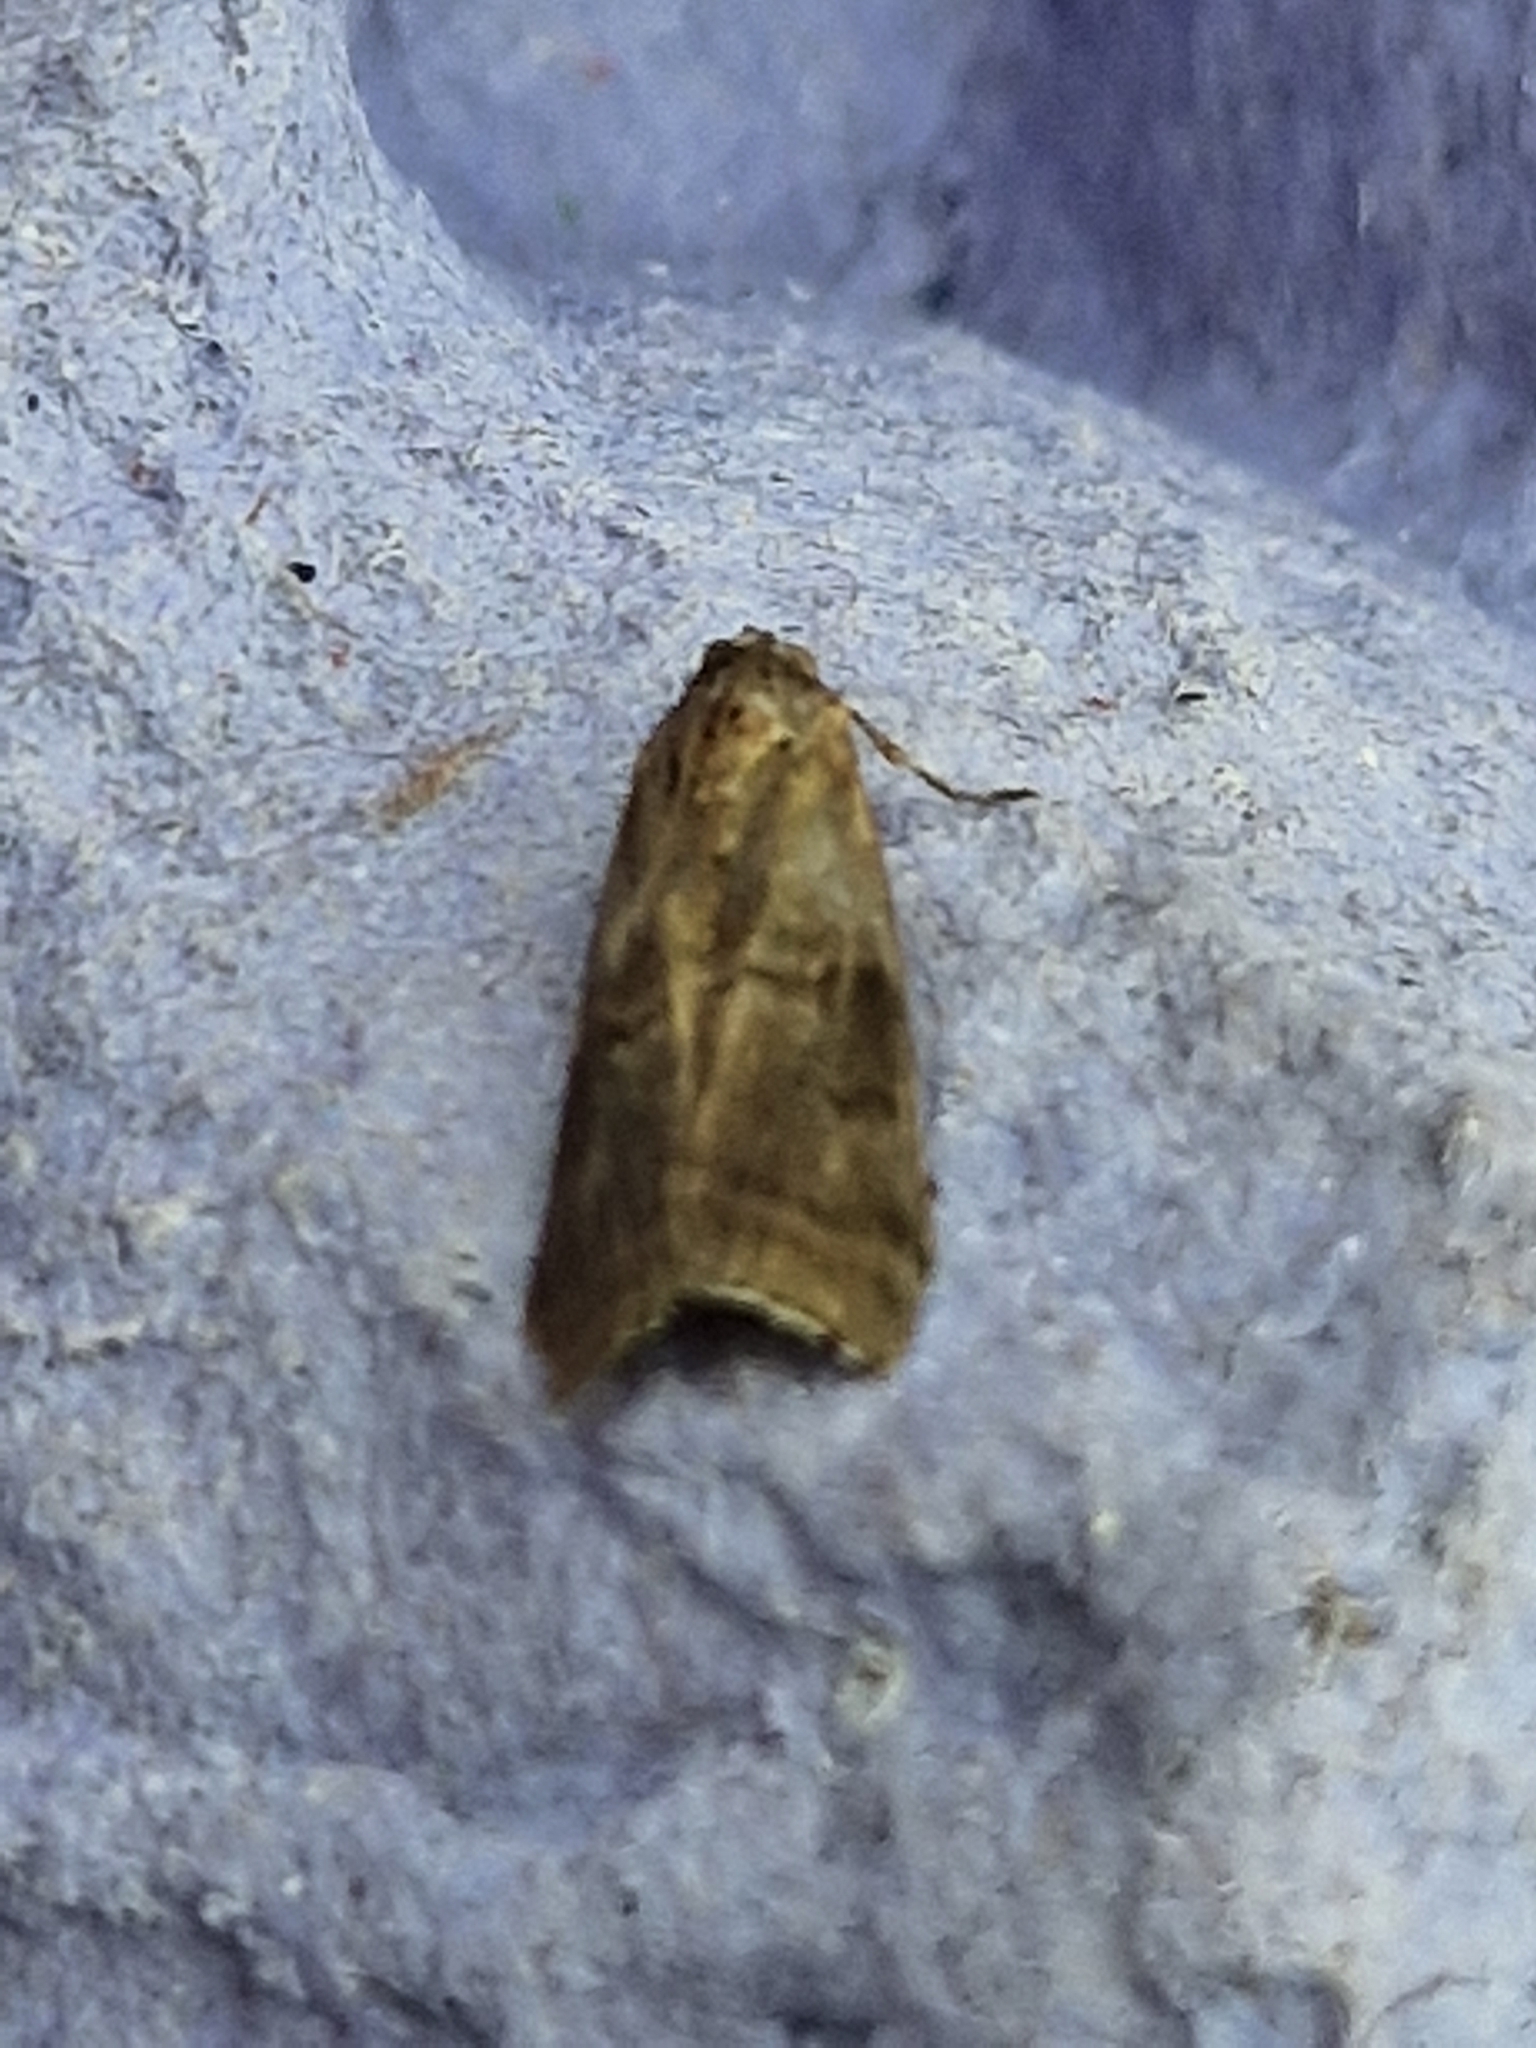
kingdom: Animalia
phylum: Arthropoda
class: Insecta
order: Lepidoptera
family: Pyralidae
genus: Phycita
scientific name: Phycita roborella
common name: Dotted oak knot-horn
